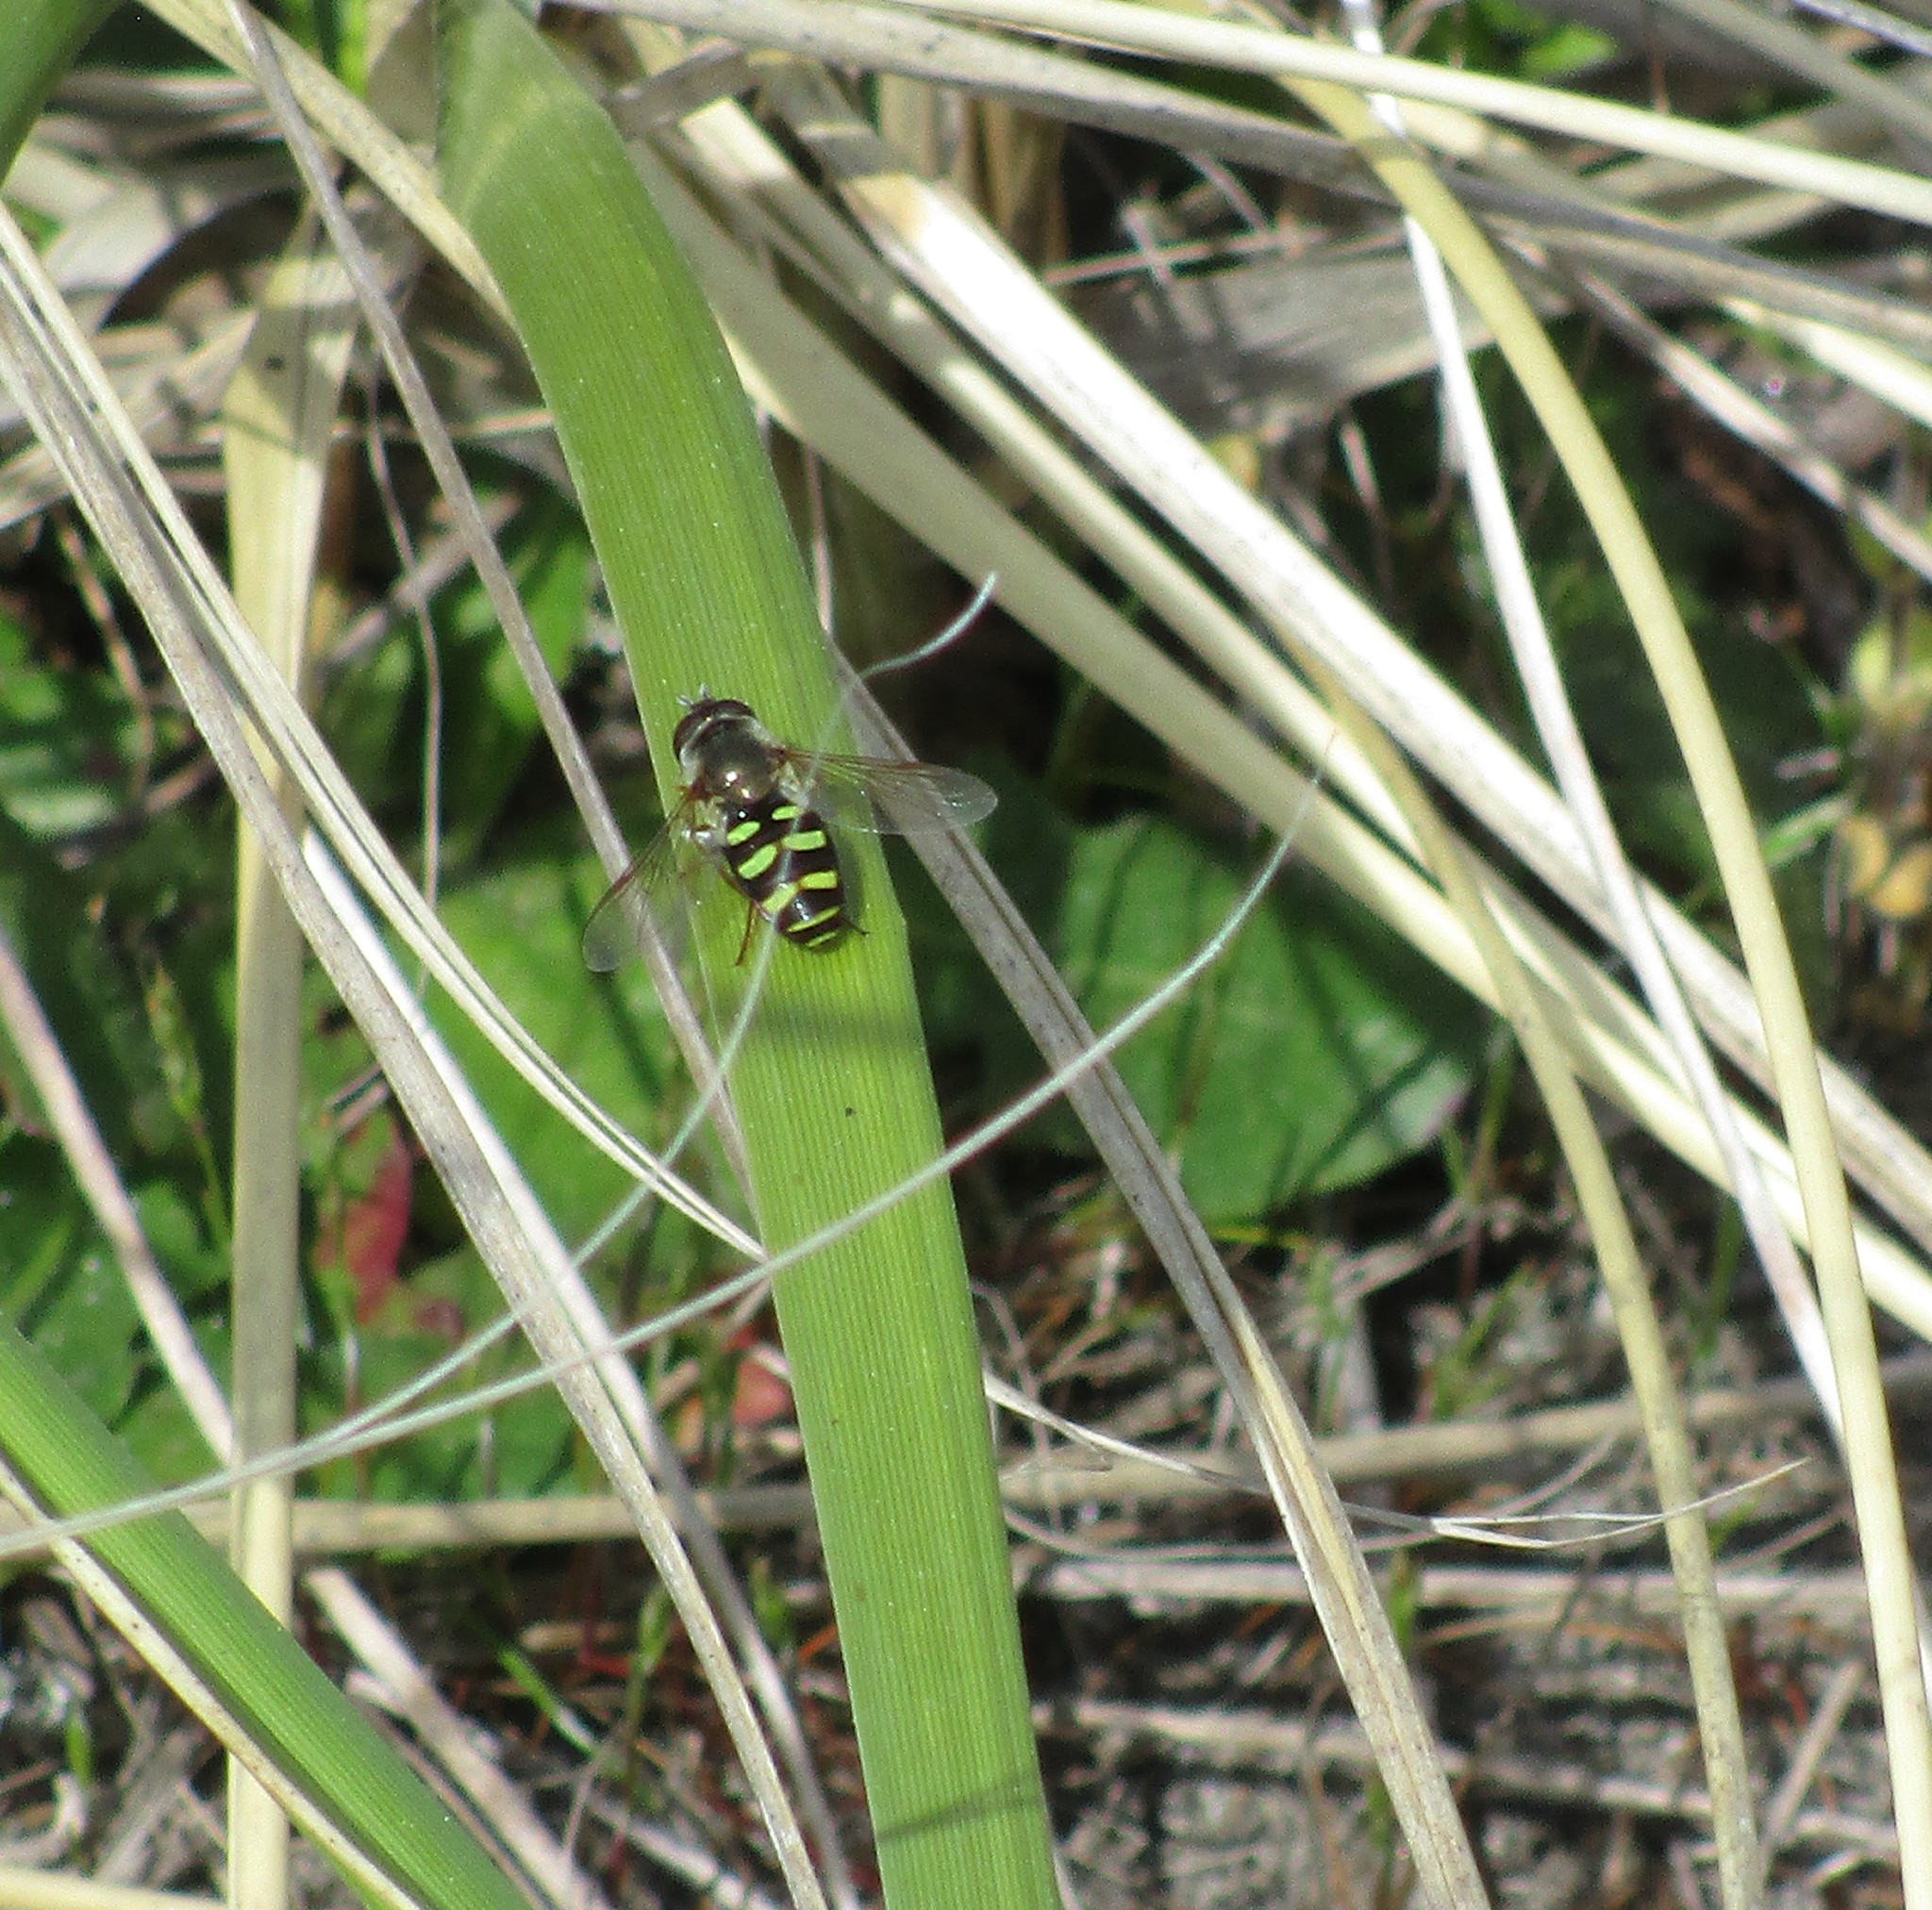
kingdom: Animalia
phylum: Arthropoda
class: Insecta
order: Diptera
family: Syrphidae
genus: Eupeodes
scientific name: Eupeodes fumipennis
